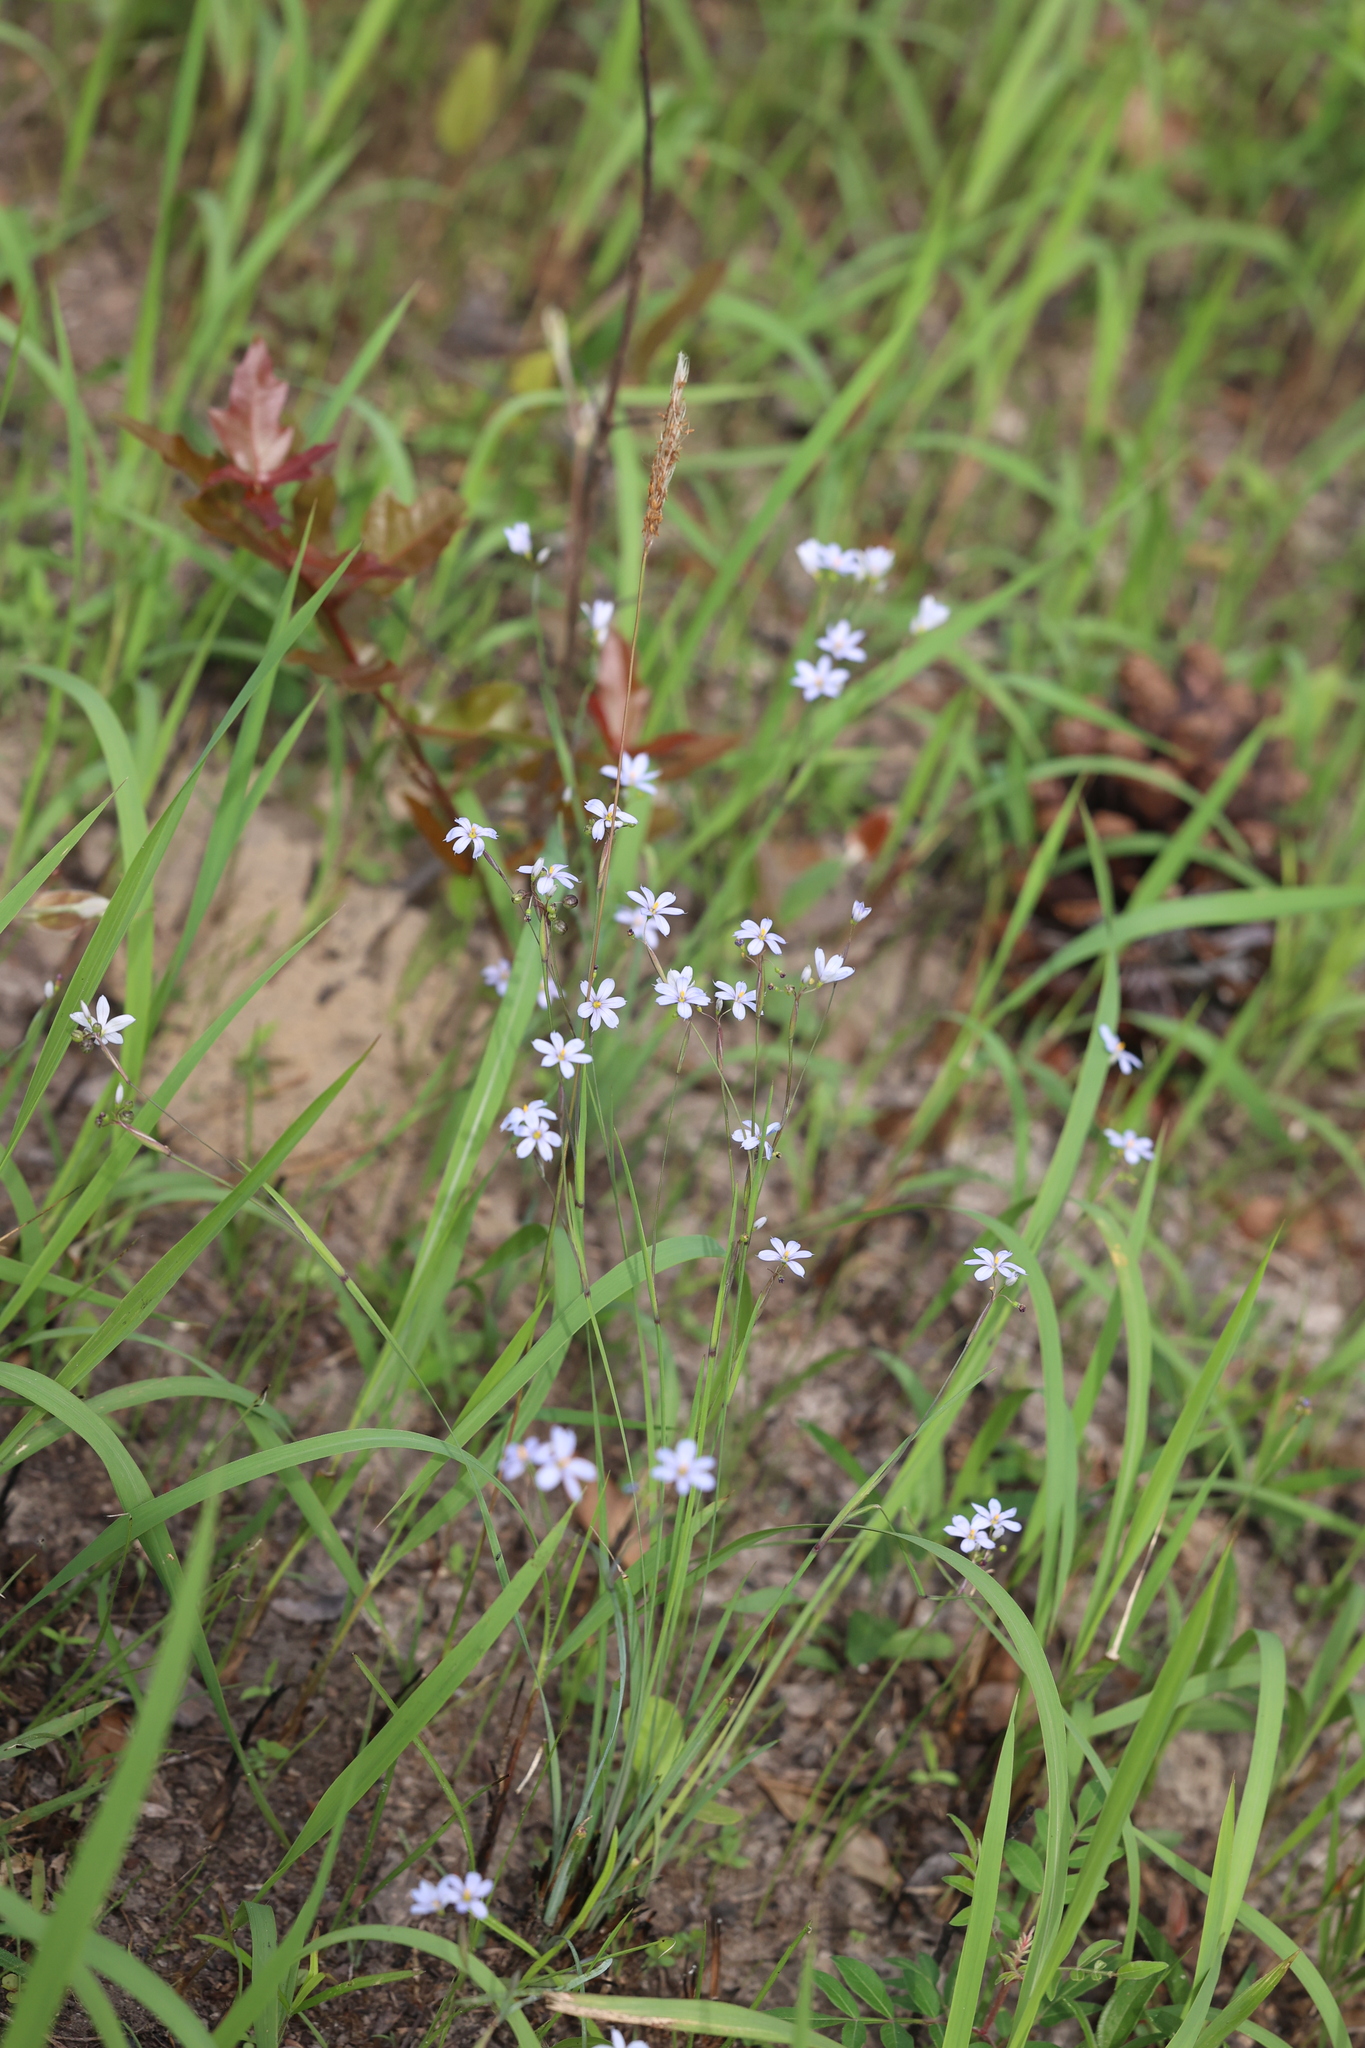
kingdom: Plantae
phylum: Tracheophyta
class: Liliopsida
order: Asparagales
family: Iridaceae
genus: Sisyrinchium
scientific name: Sisyrinchium fuscatum
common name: Coastal plain blue-eyed-grass
